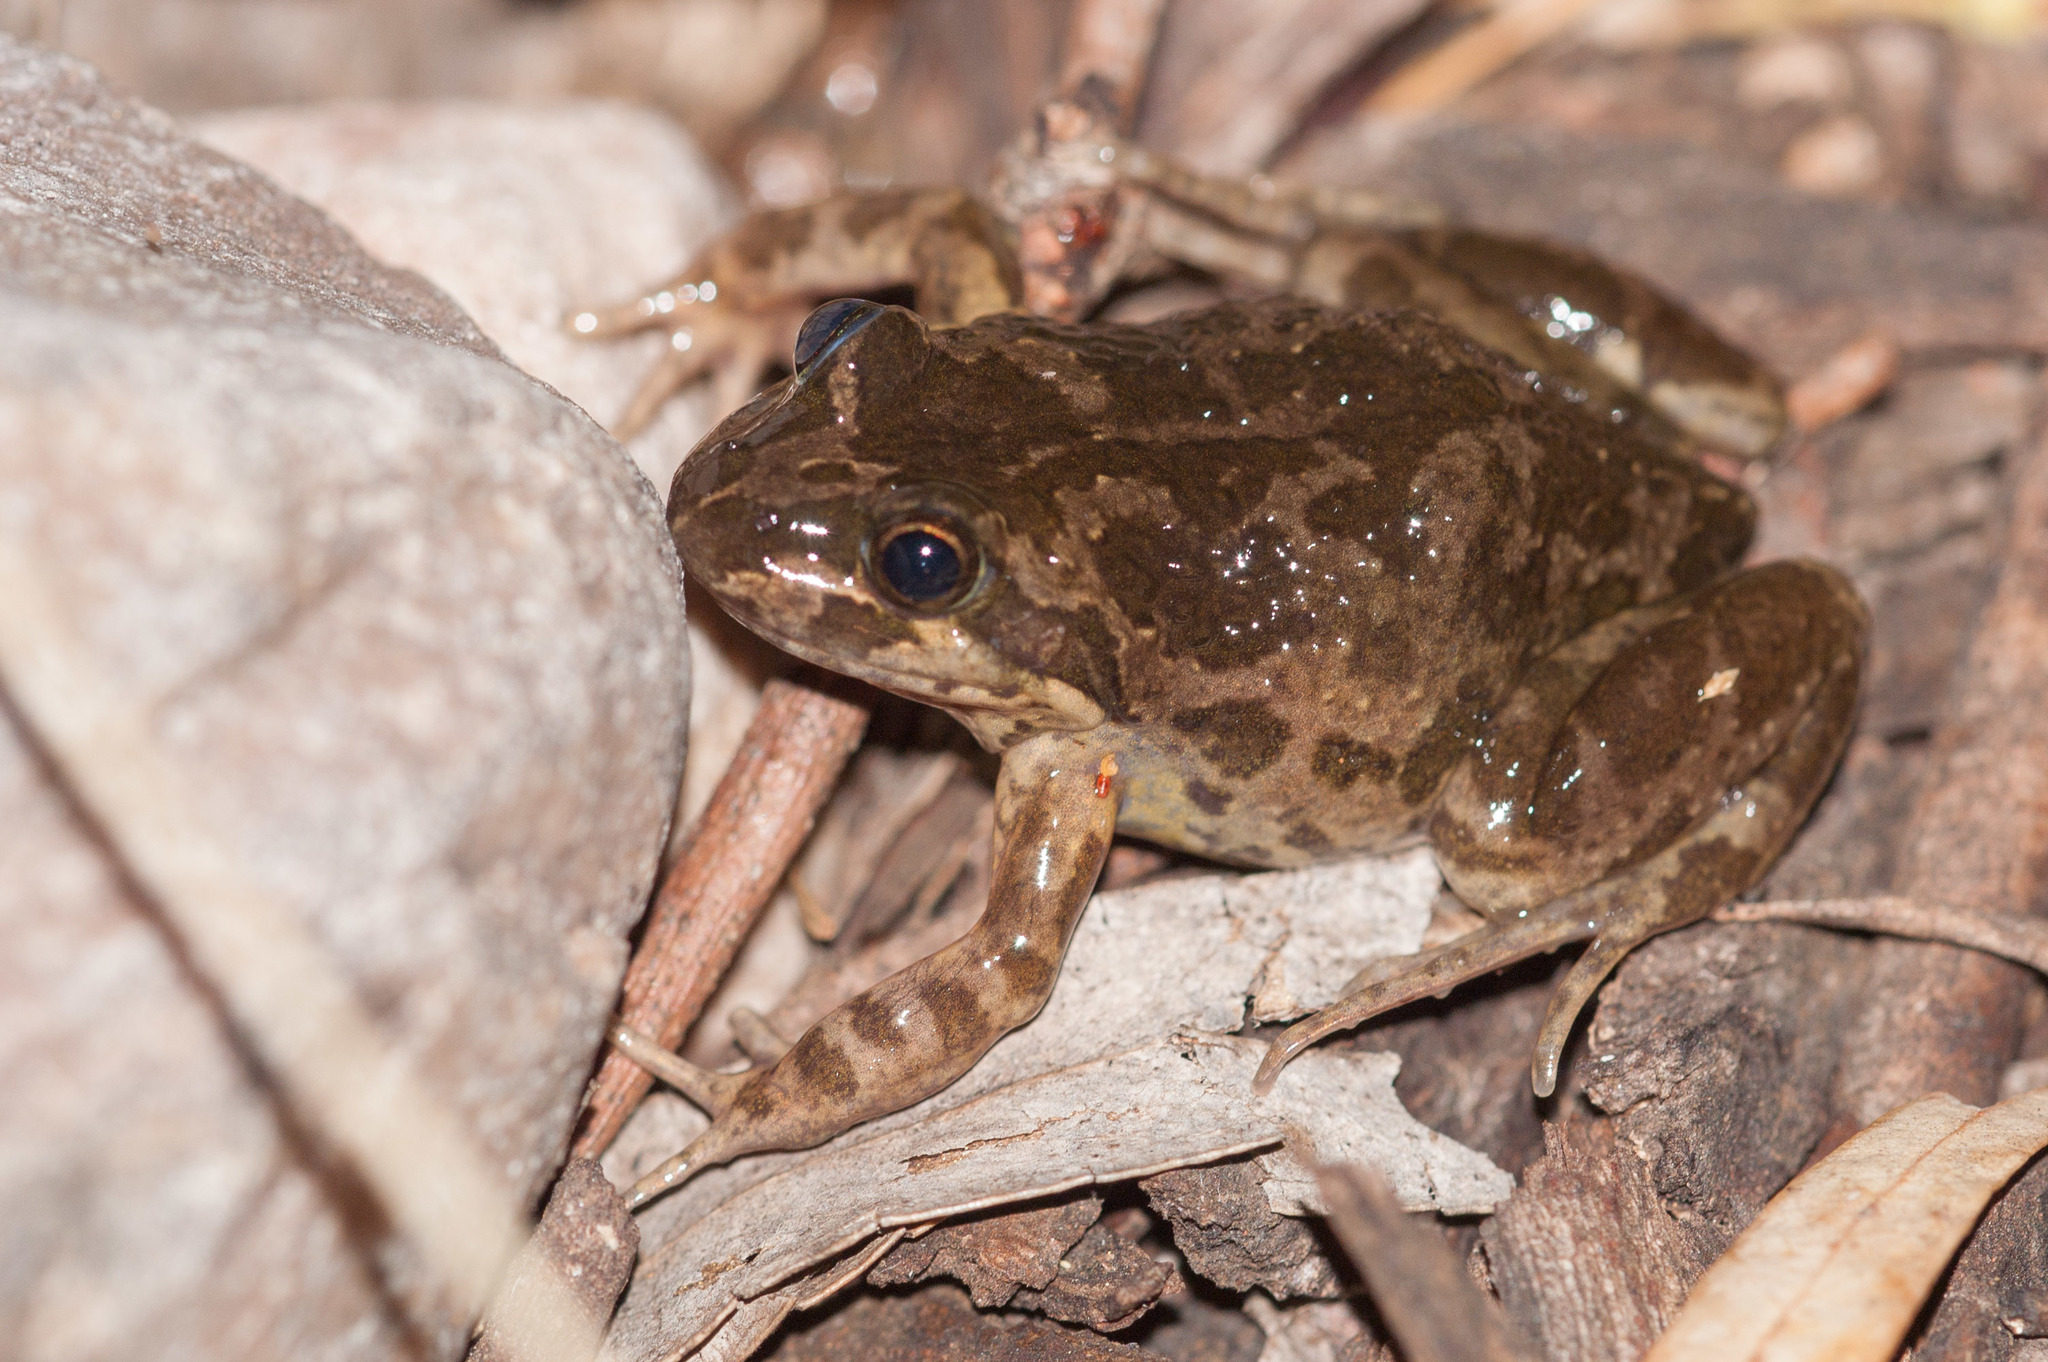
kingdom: Animalia
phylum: Chordata
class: Amphibia
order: Anura
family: Limnodynastidae
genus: Limnodynastes
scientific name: Limnodynastes tasmaniensis
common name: Spotted marsh frog
